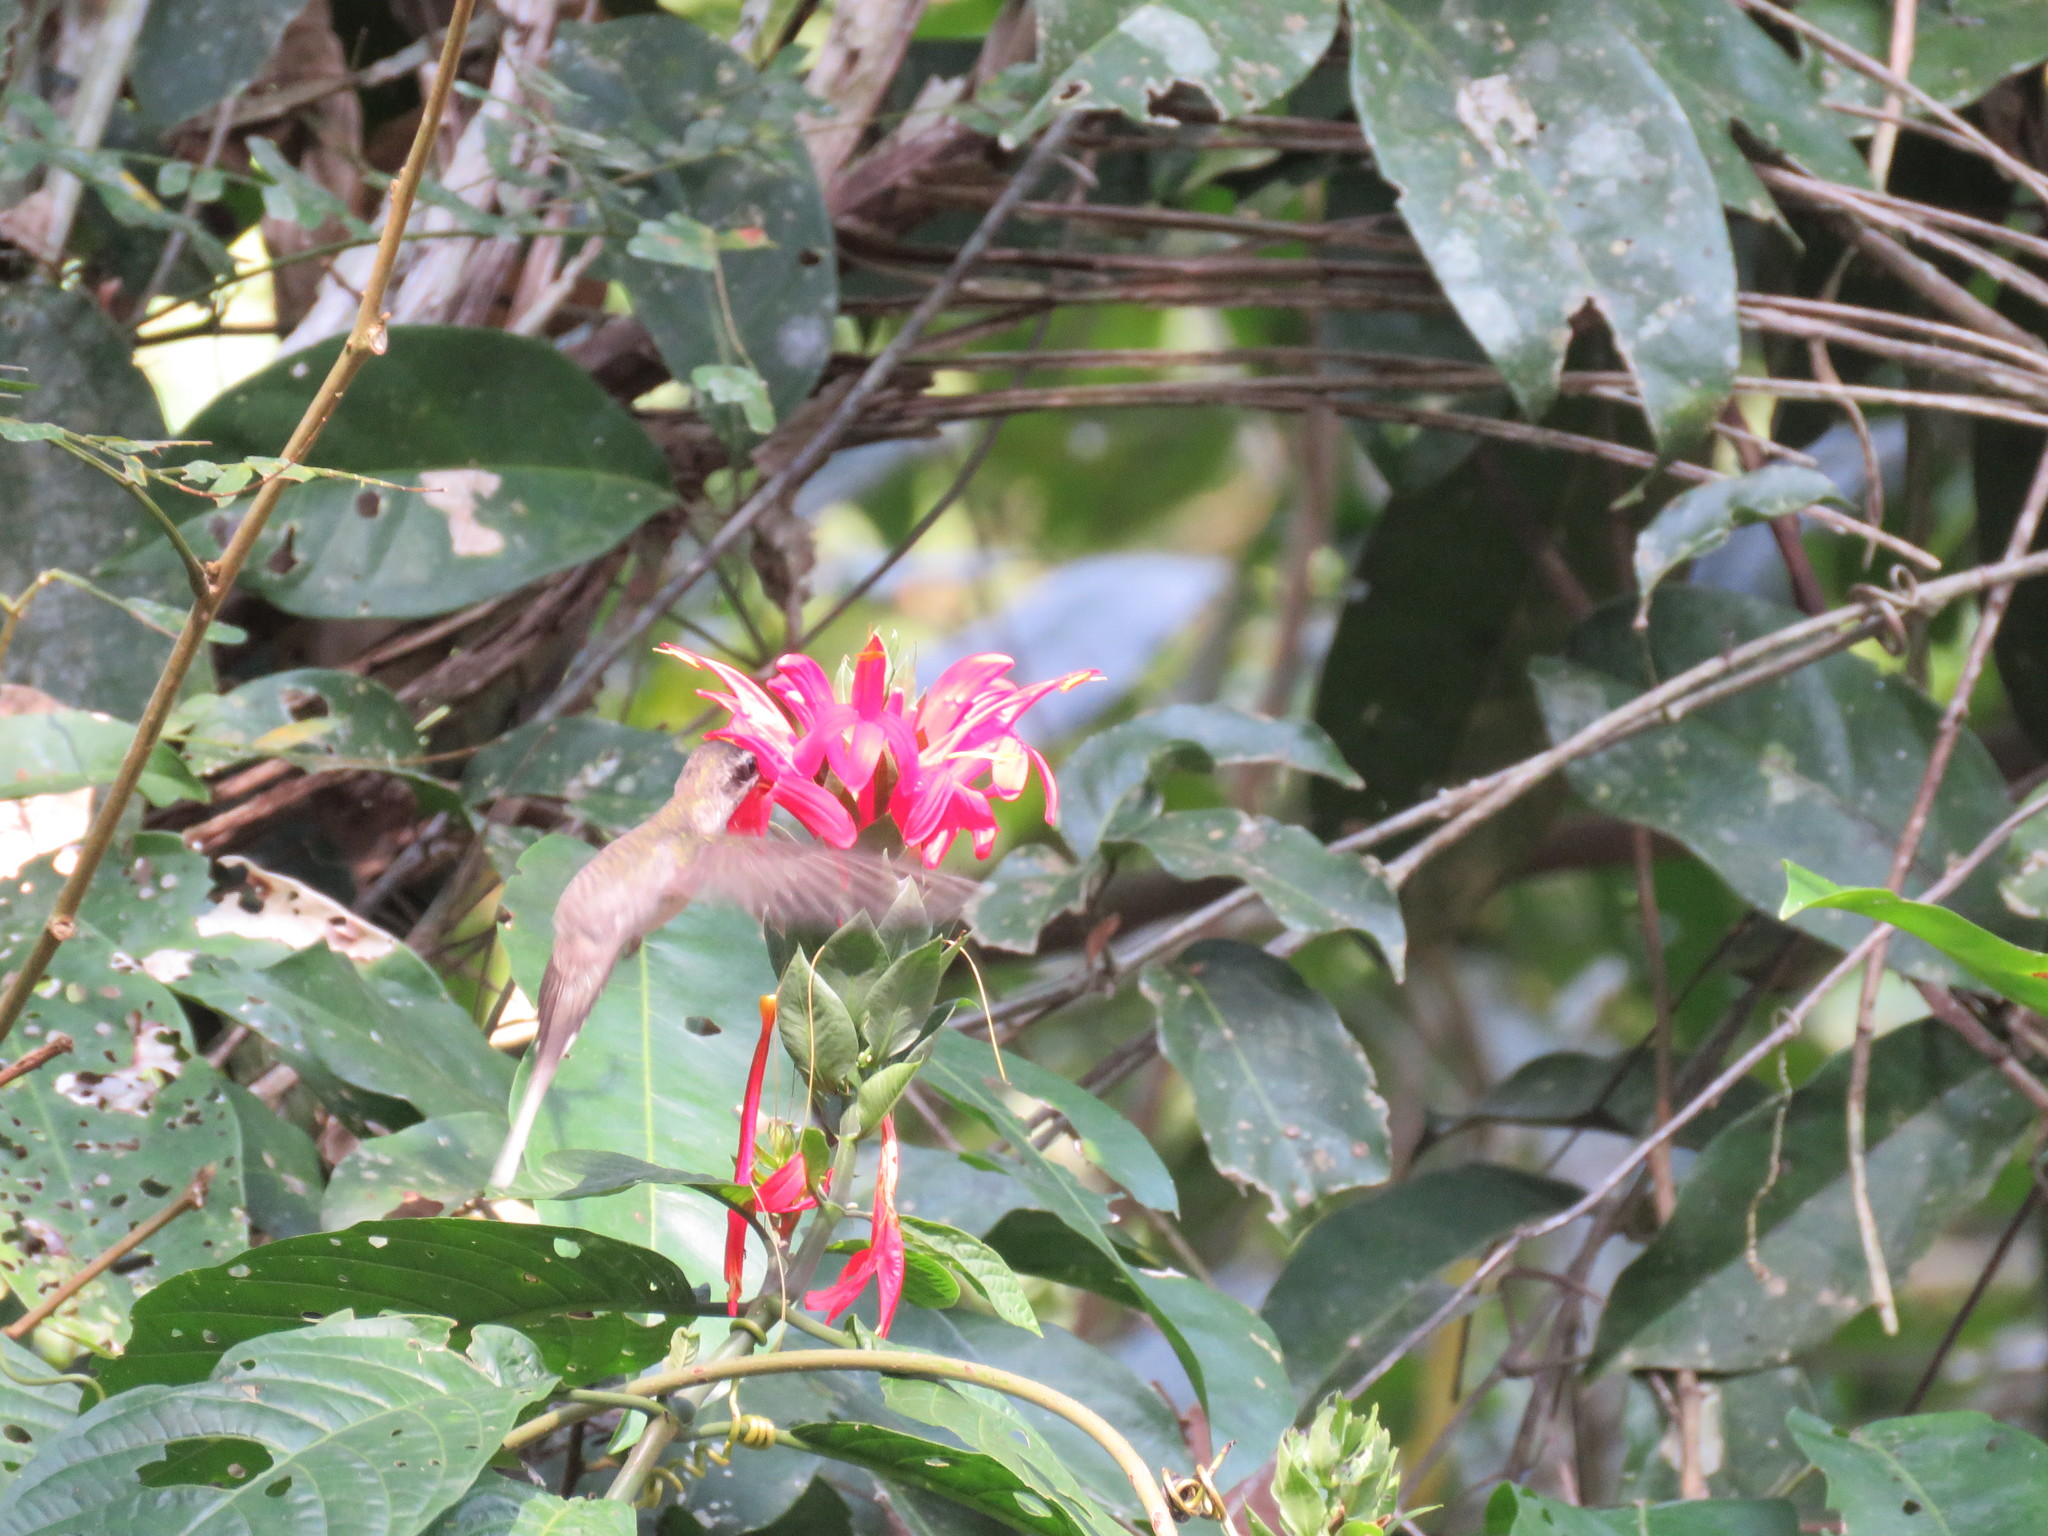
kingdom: Animalia
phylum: Chordata
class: Aves
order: Apodiformes
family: Trochilidae
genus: Phaethornis
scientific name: Phaethornis hispidus
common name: White-bearded hermit
